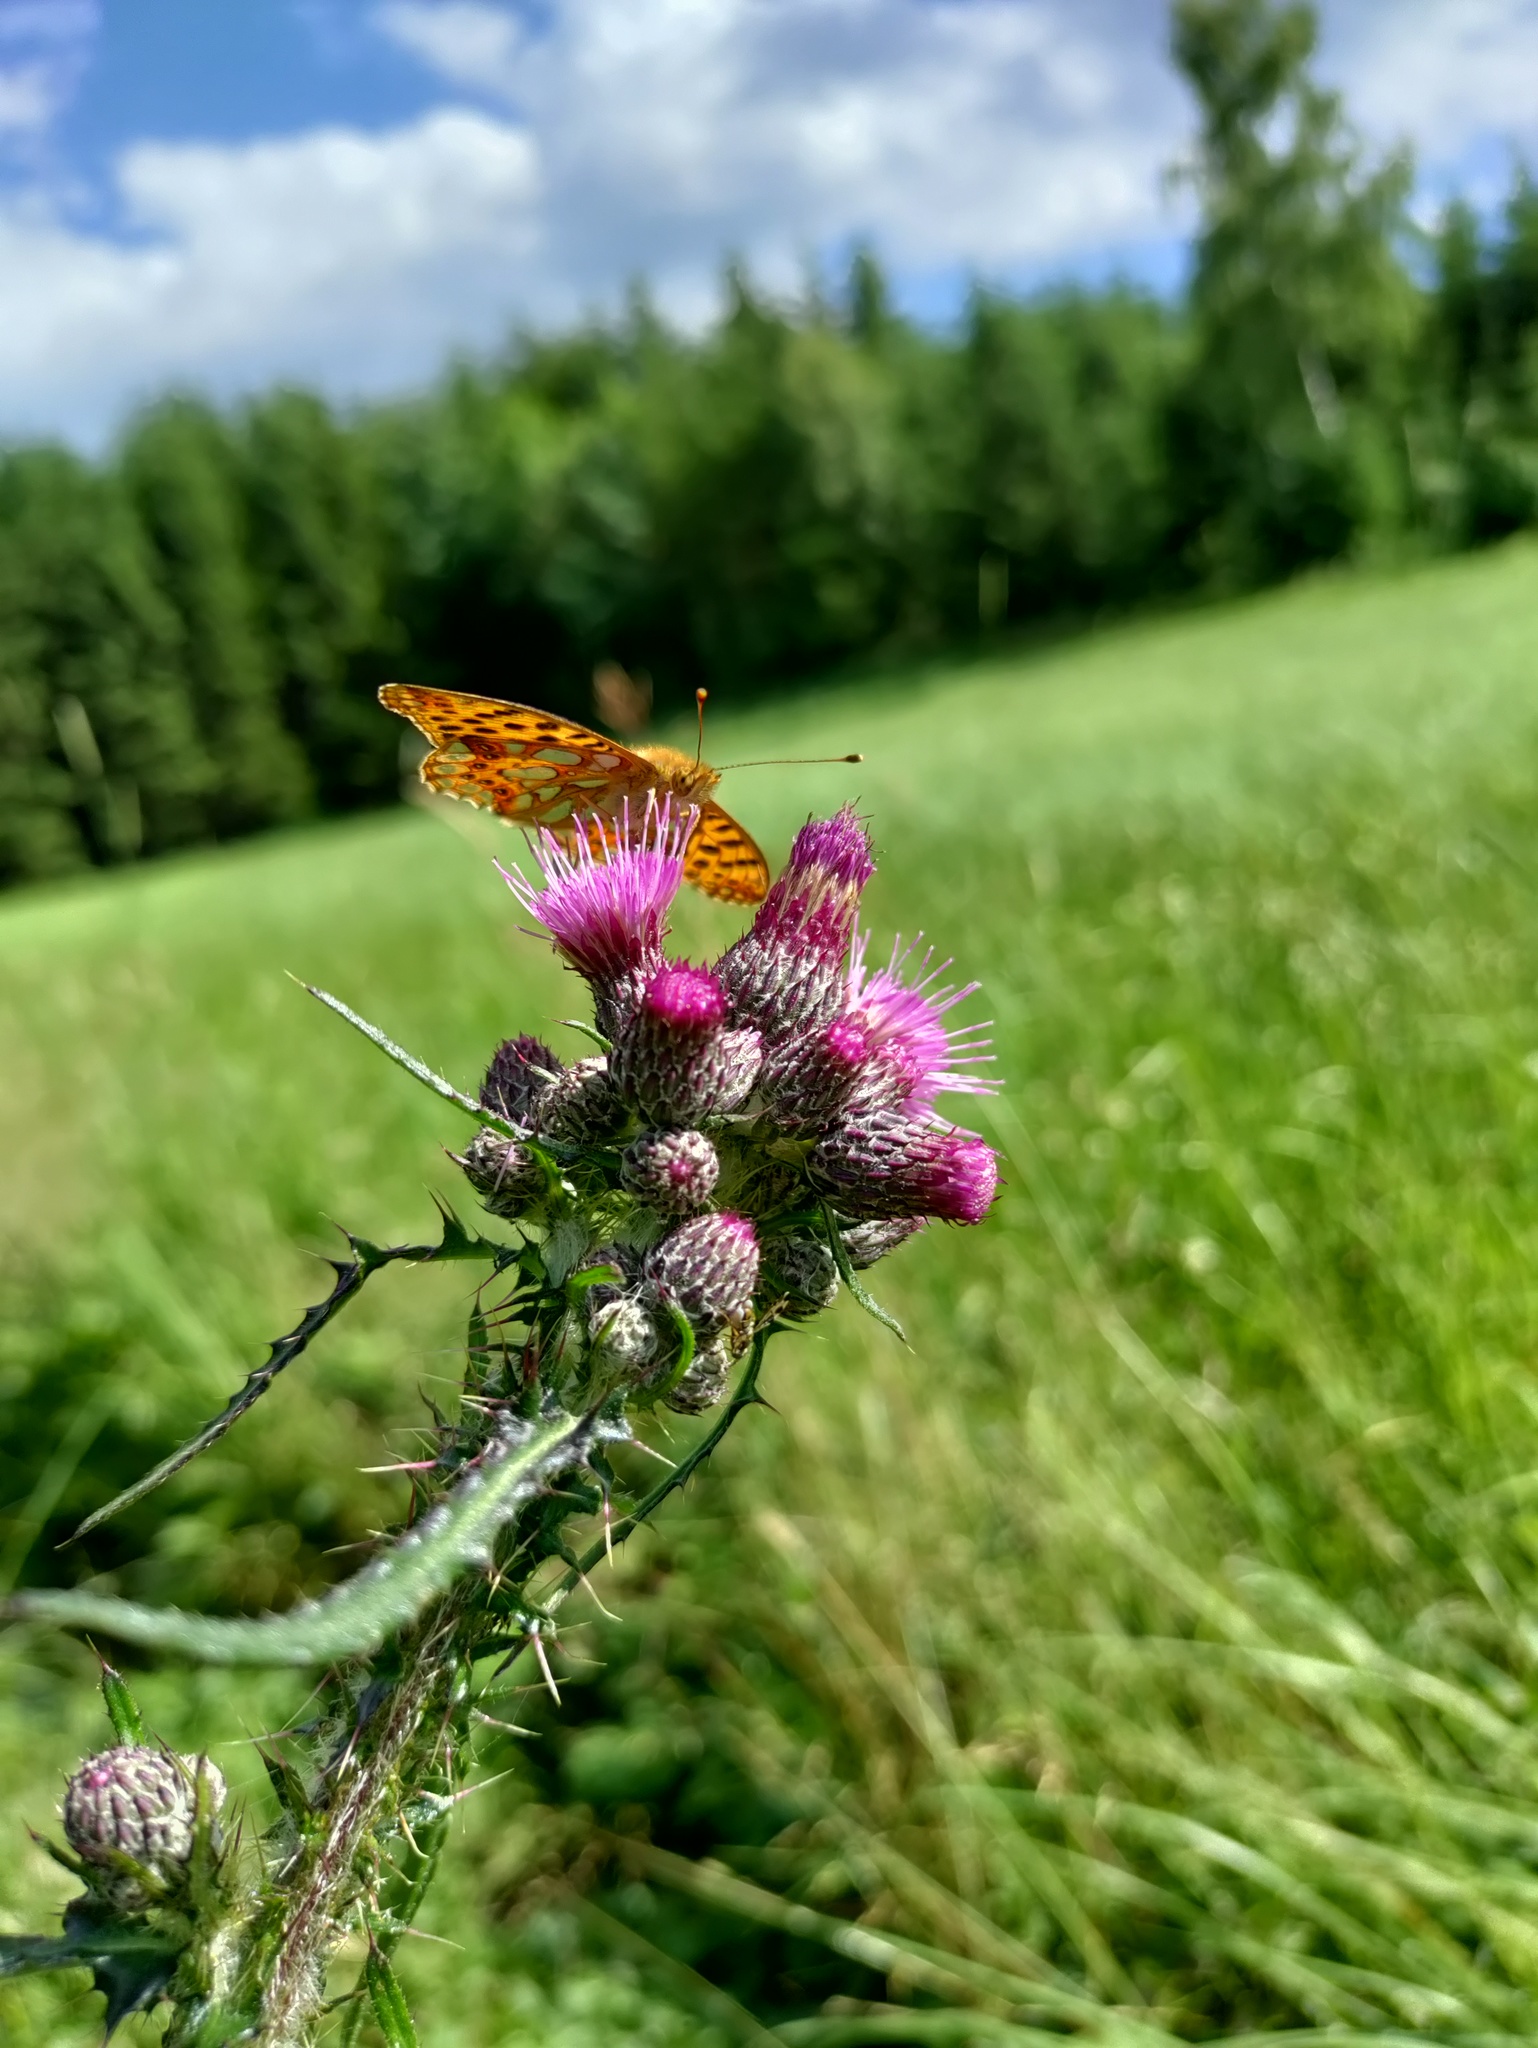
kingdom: Animalia
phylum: Arthropoda
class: Insecta
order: Lepidoptera
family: Nymphalidae
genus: Issoria
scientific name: Issoria lathonia
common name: Queen of spain fritillary
